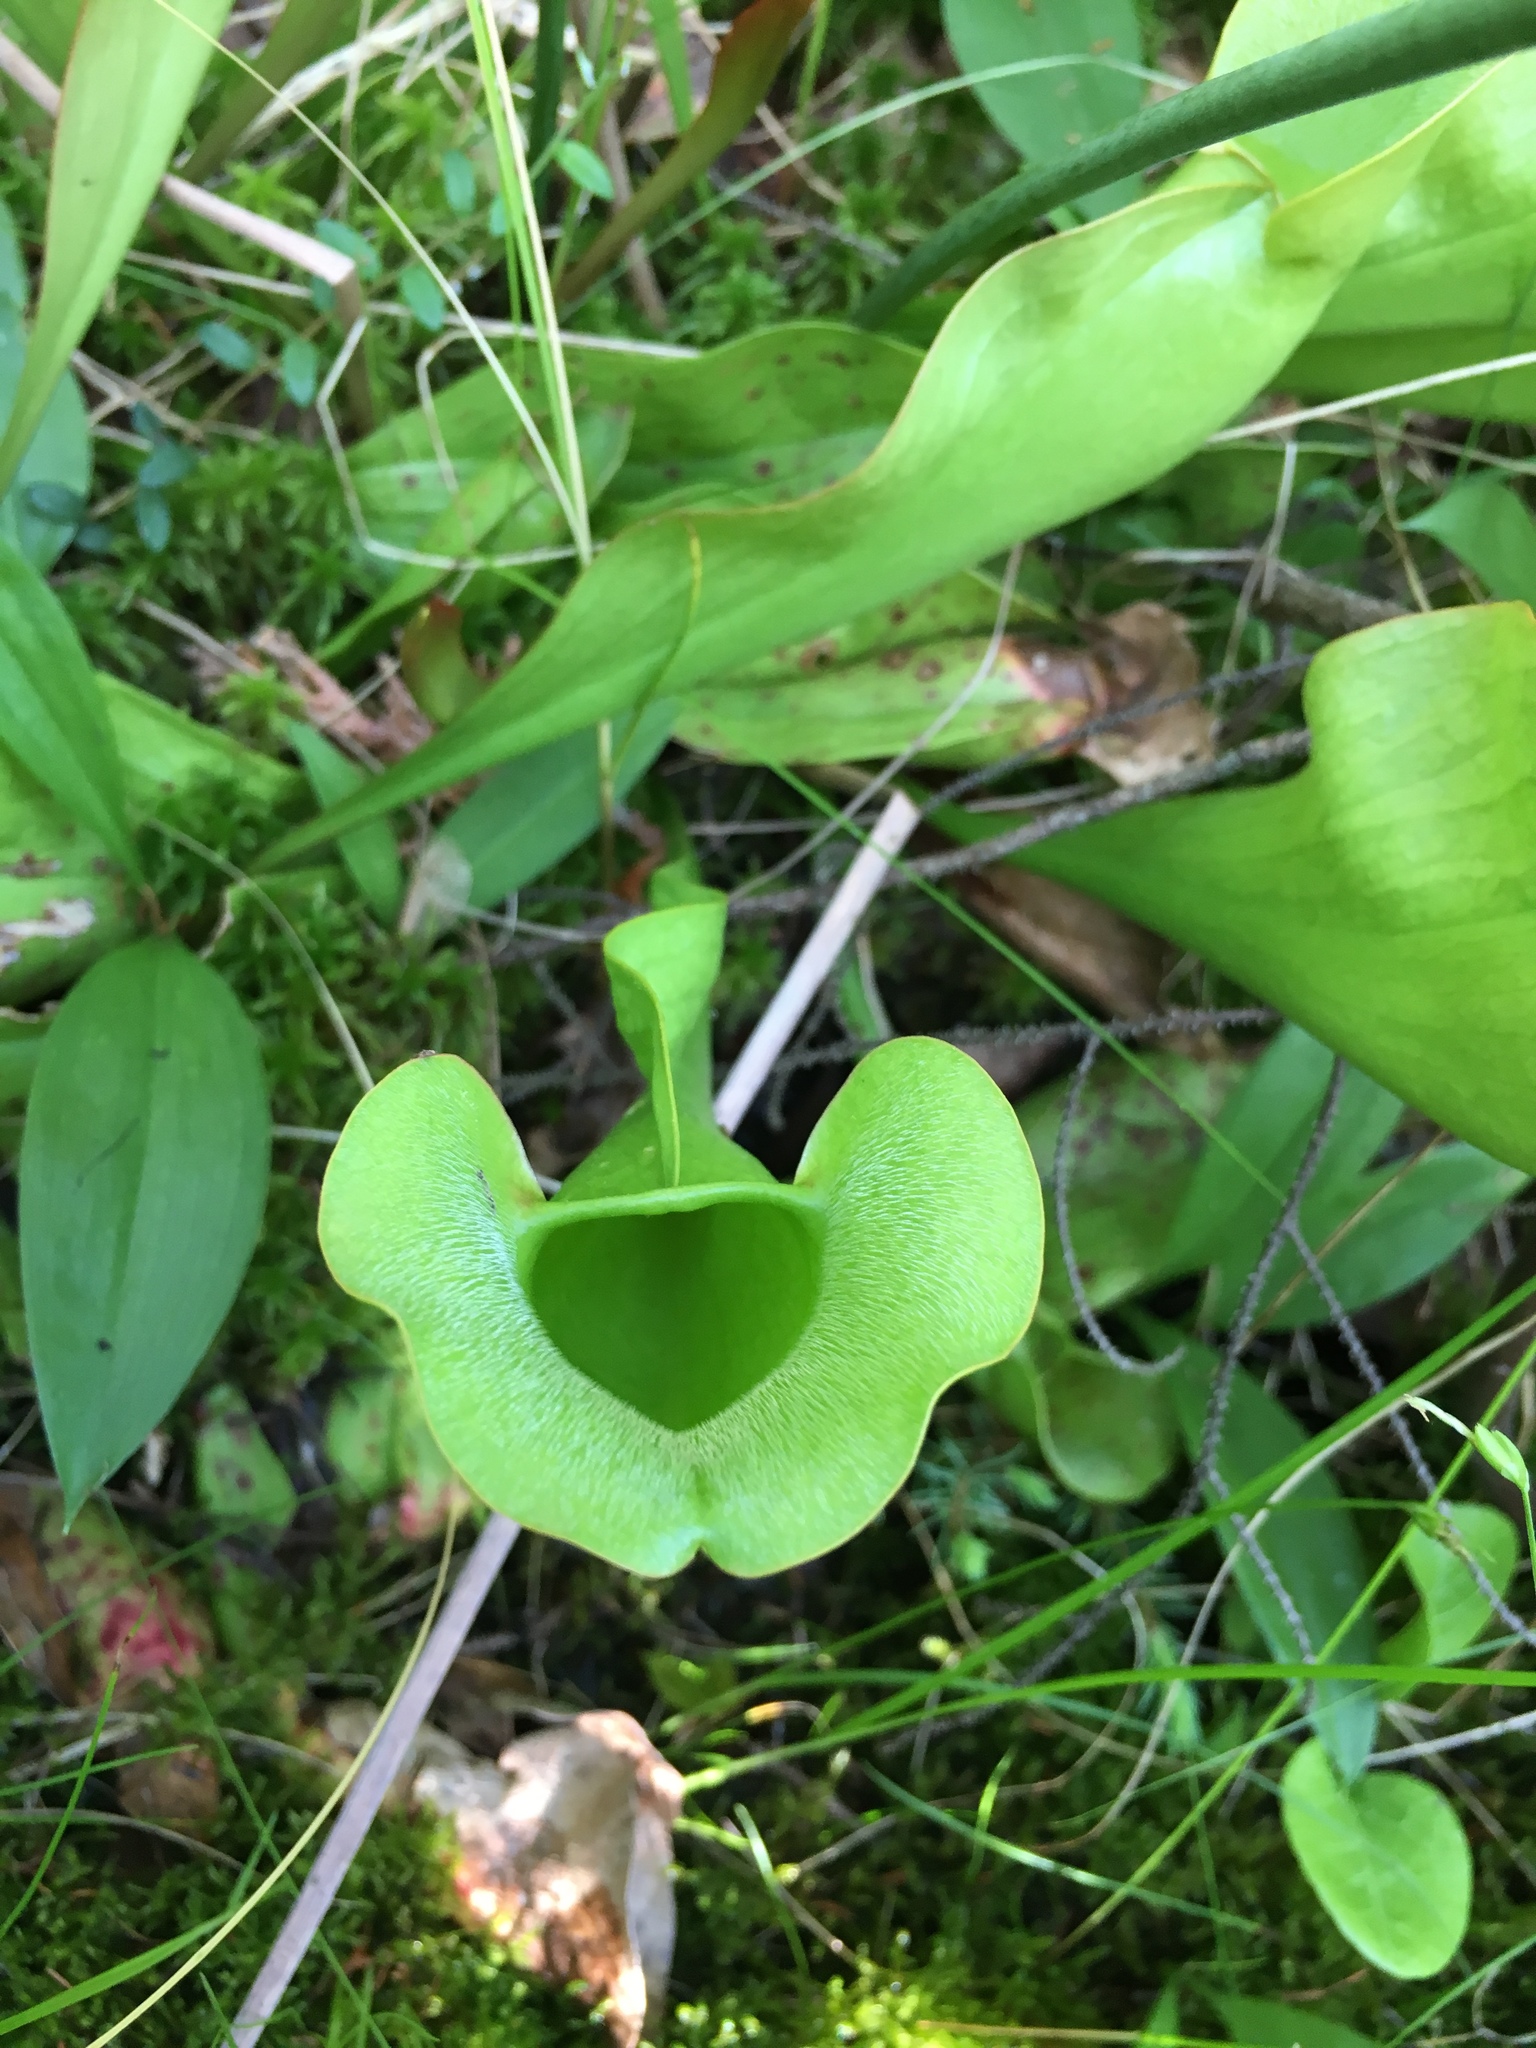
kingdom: Plantae
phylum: Tracheophyta
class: Magnoliopsida
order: Ericales
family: Sarraceniaceae
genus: Sarracenia
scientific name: Sarracenia purpurea
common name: Pitcherplant
